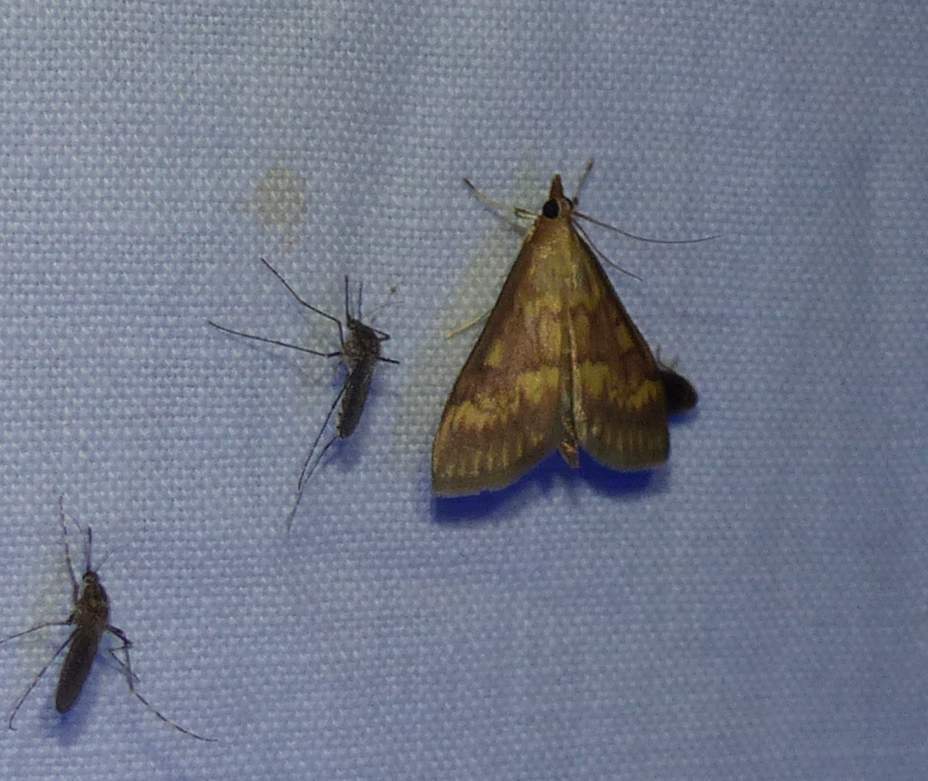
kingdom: Animalia
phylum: Arthropoda
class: Insecta
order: Lepidoptera
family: Crambidae
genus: Ostrinia
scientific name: Ostrinia nubilalis
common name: European corn borer
